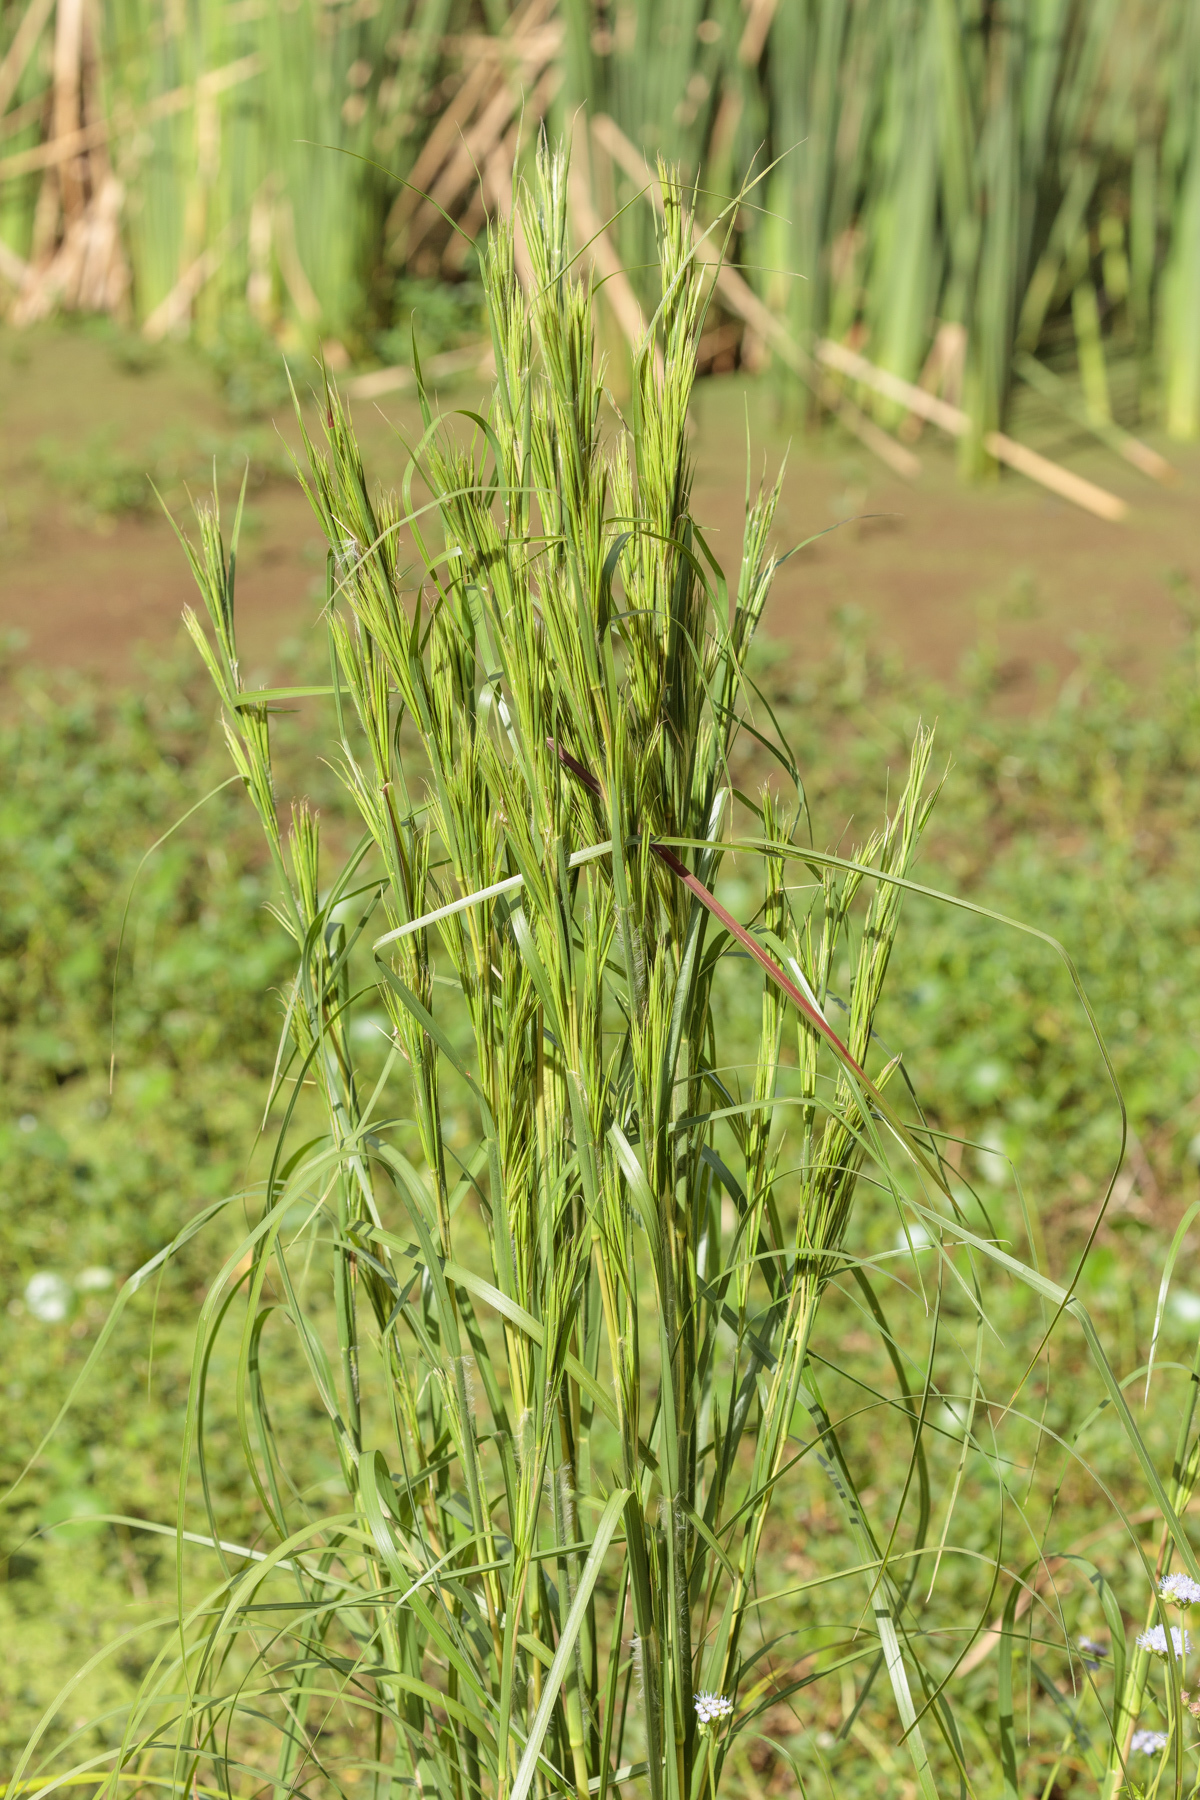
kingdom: Plantae
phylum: Tracheophyta
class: Liliopsida
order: Poales
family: Poaceae
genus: Andropogon
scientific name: Andropogon tenuispatheus
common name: Bushy bluestem
